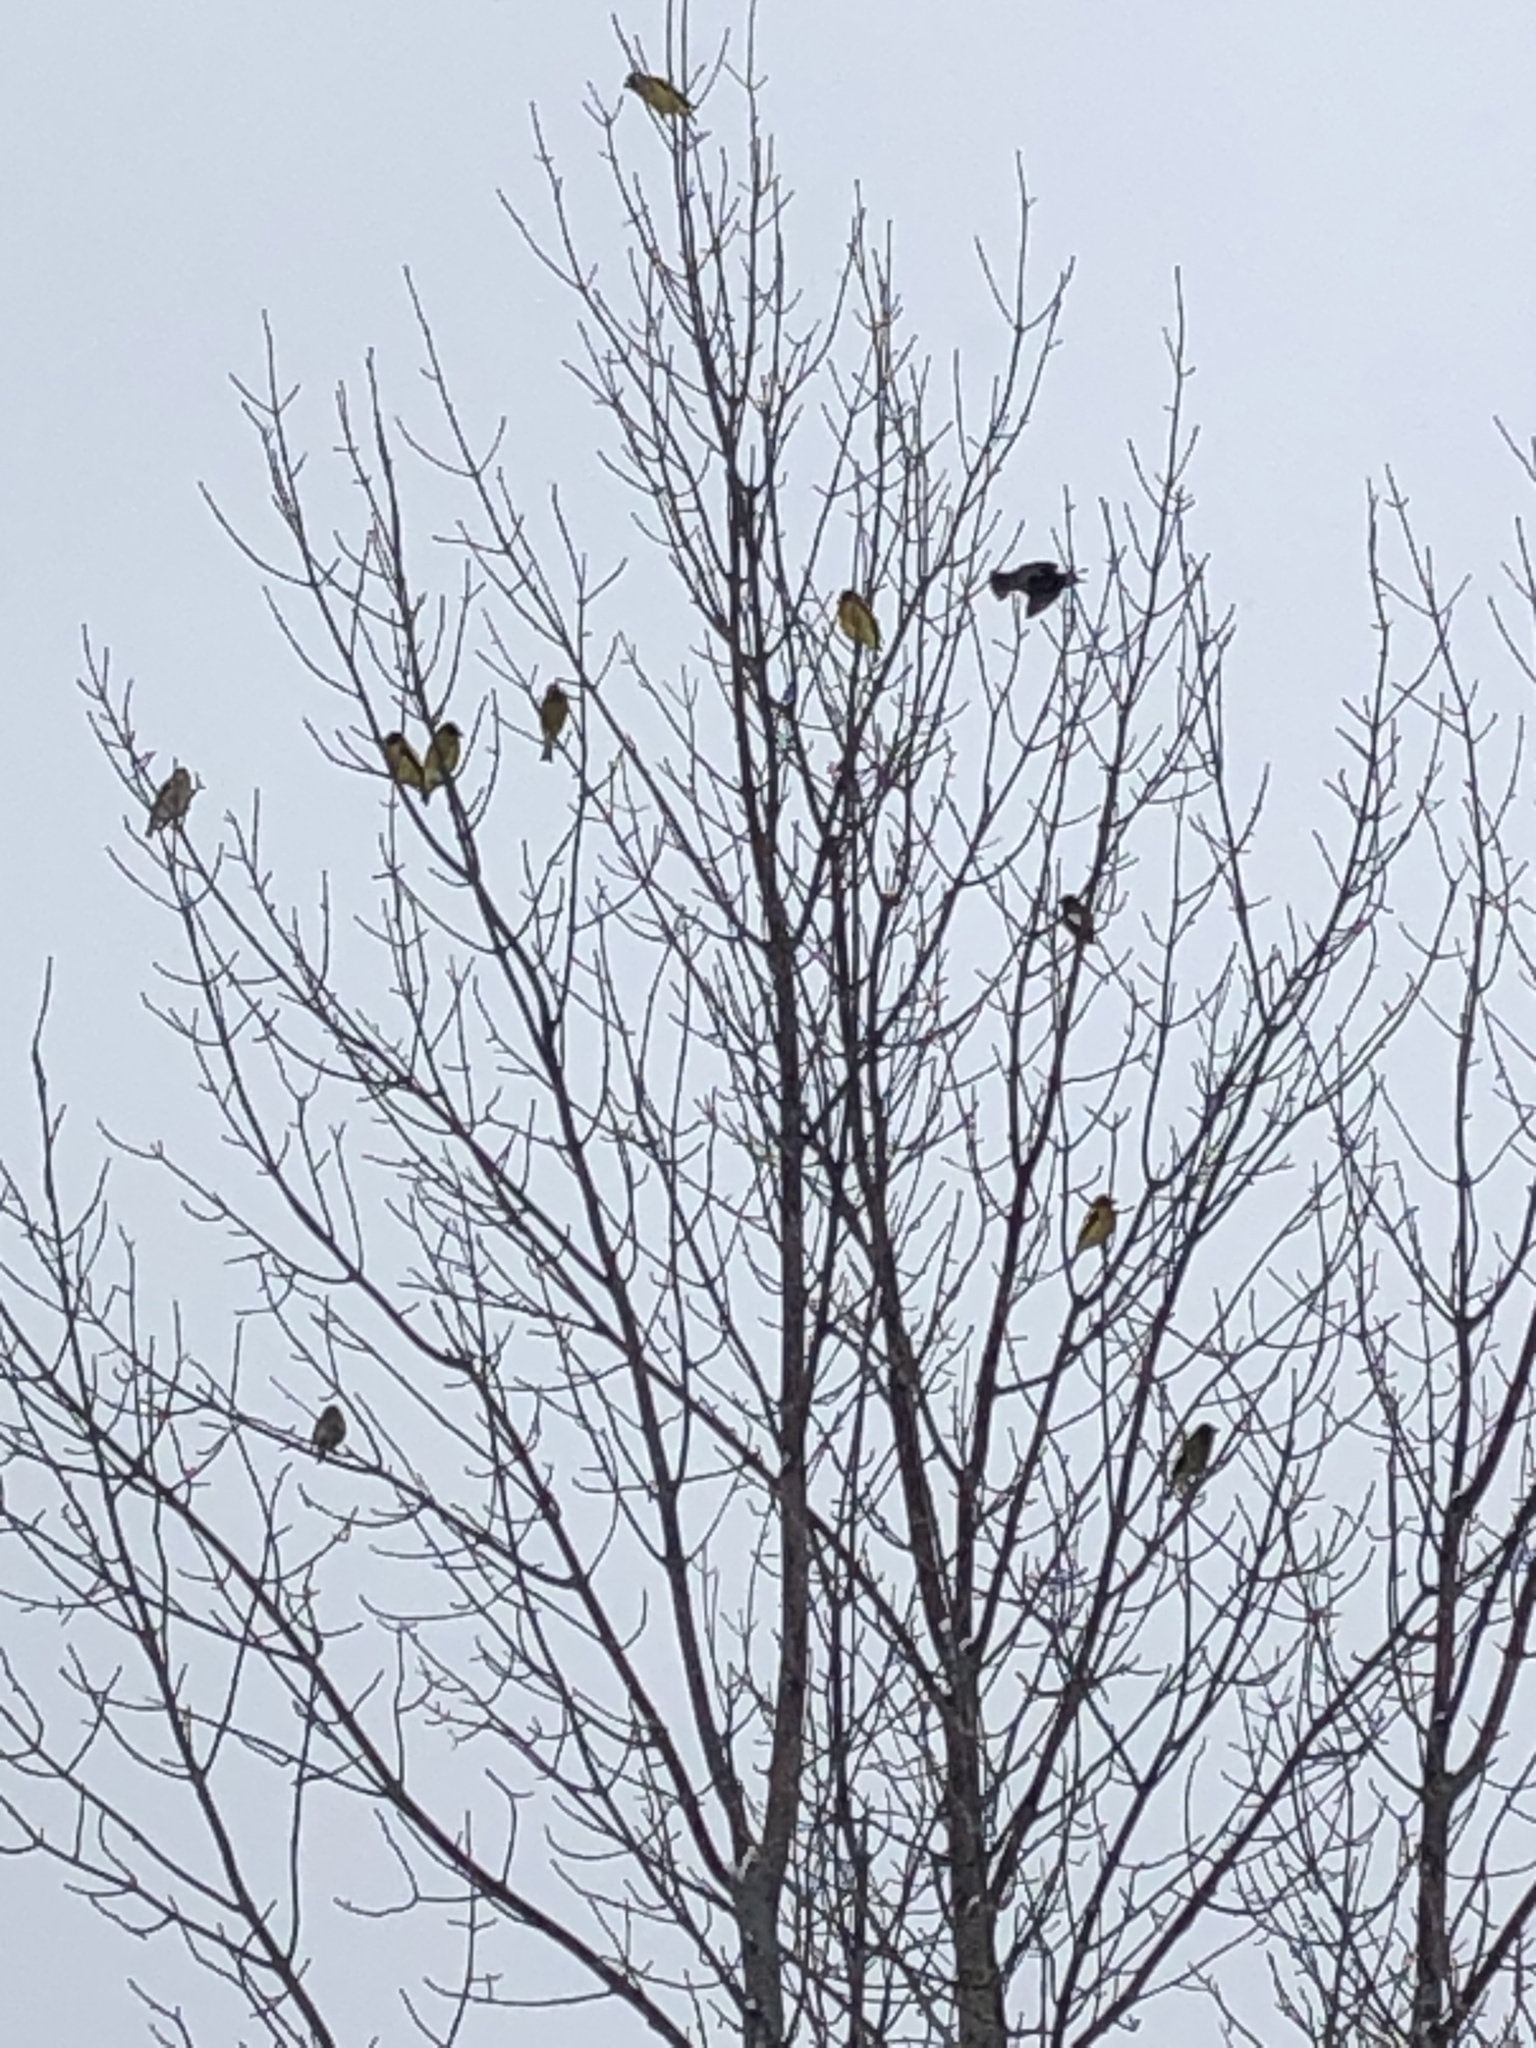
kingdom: Animalia
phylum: Chordata
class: Aves
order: Passeriformes
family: Fringillidae
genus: Hesperiphona
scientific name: Hesperiphona vespertina
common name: Evening grosbeak
